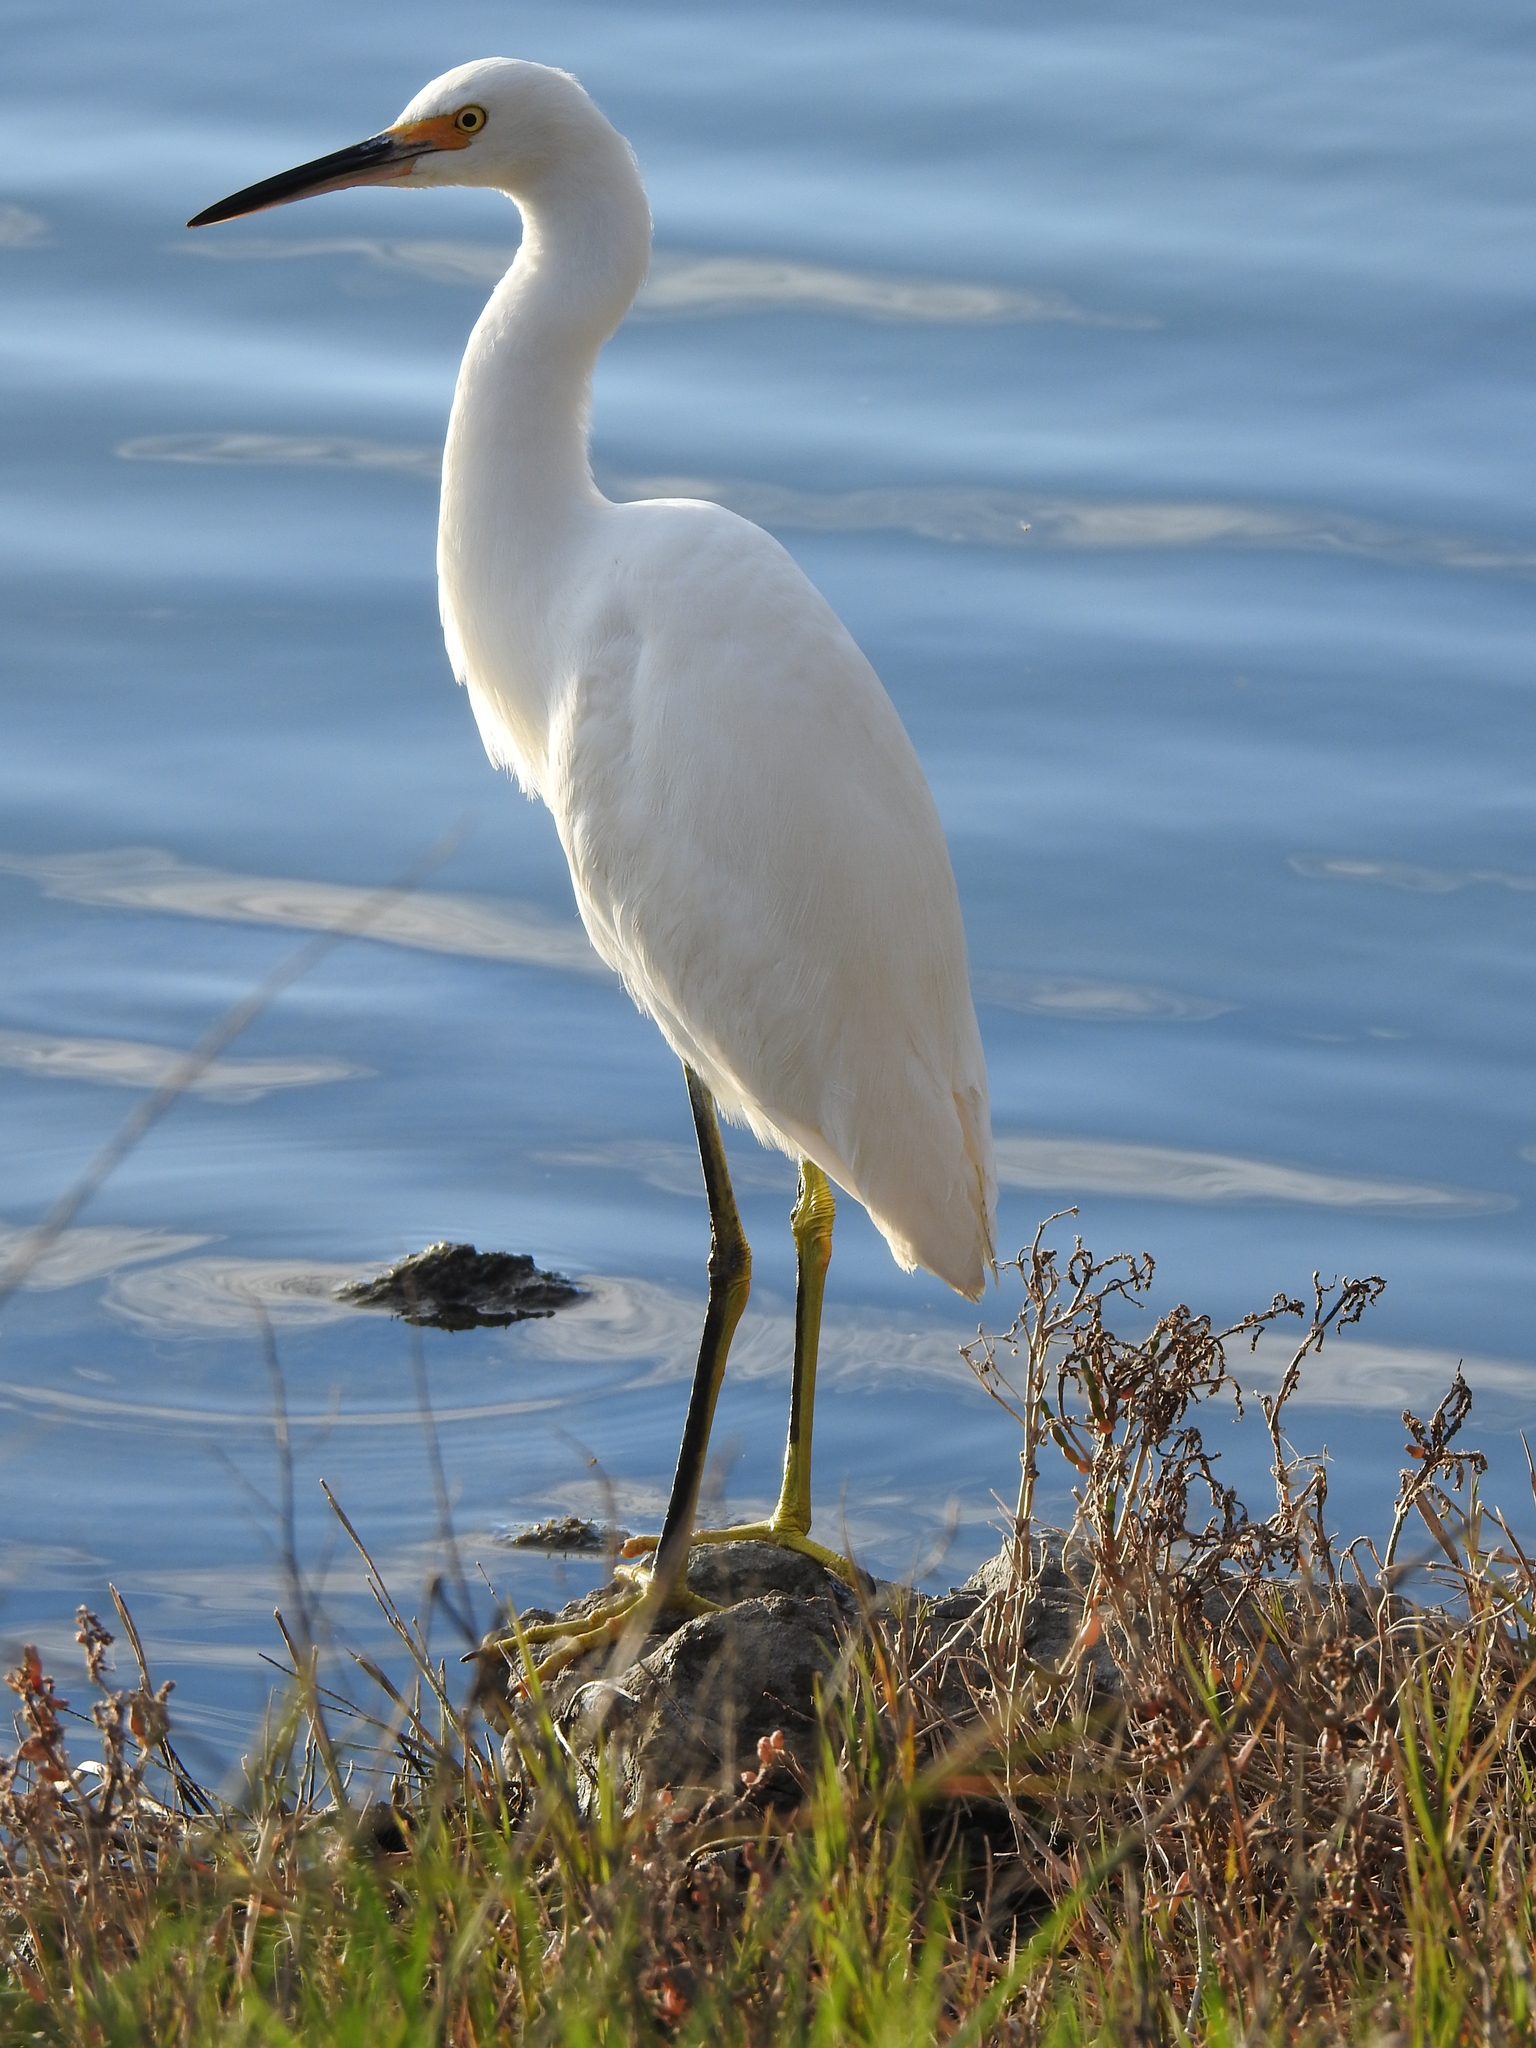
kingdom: Animalia
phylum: Chordata
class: Aves
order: Pelecaniformes
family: Ardeidae
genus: Egretta
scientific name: Egretta thula
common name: Snowy egret
